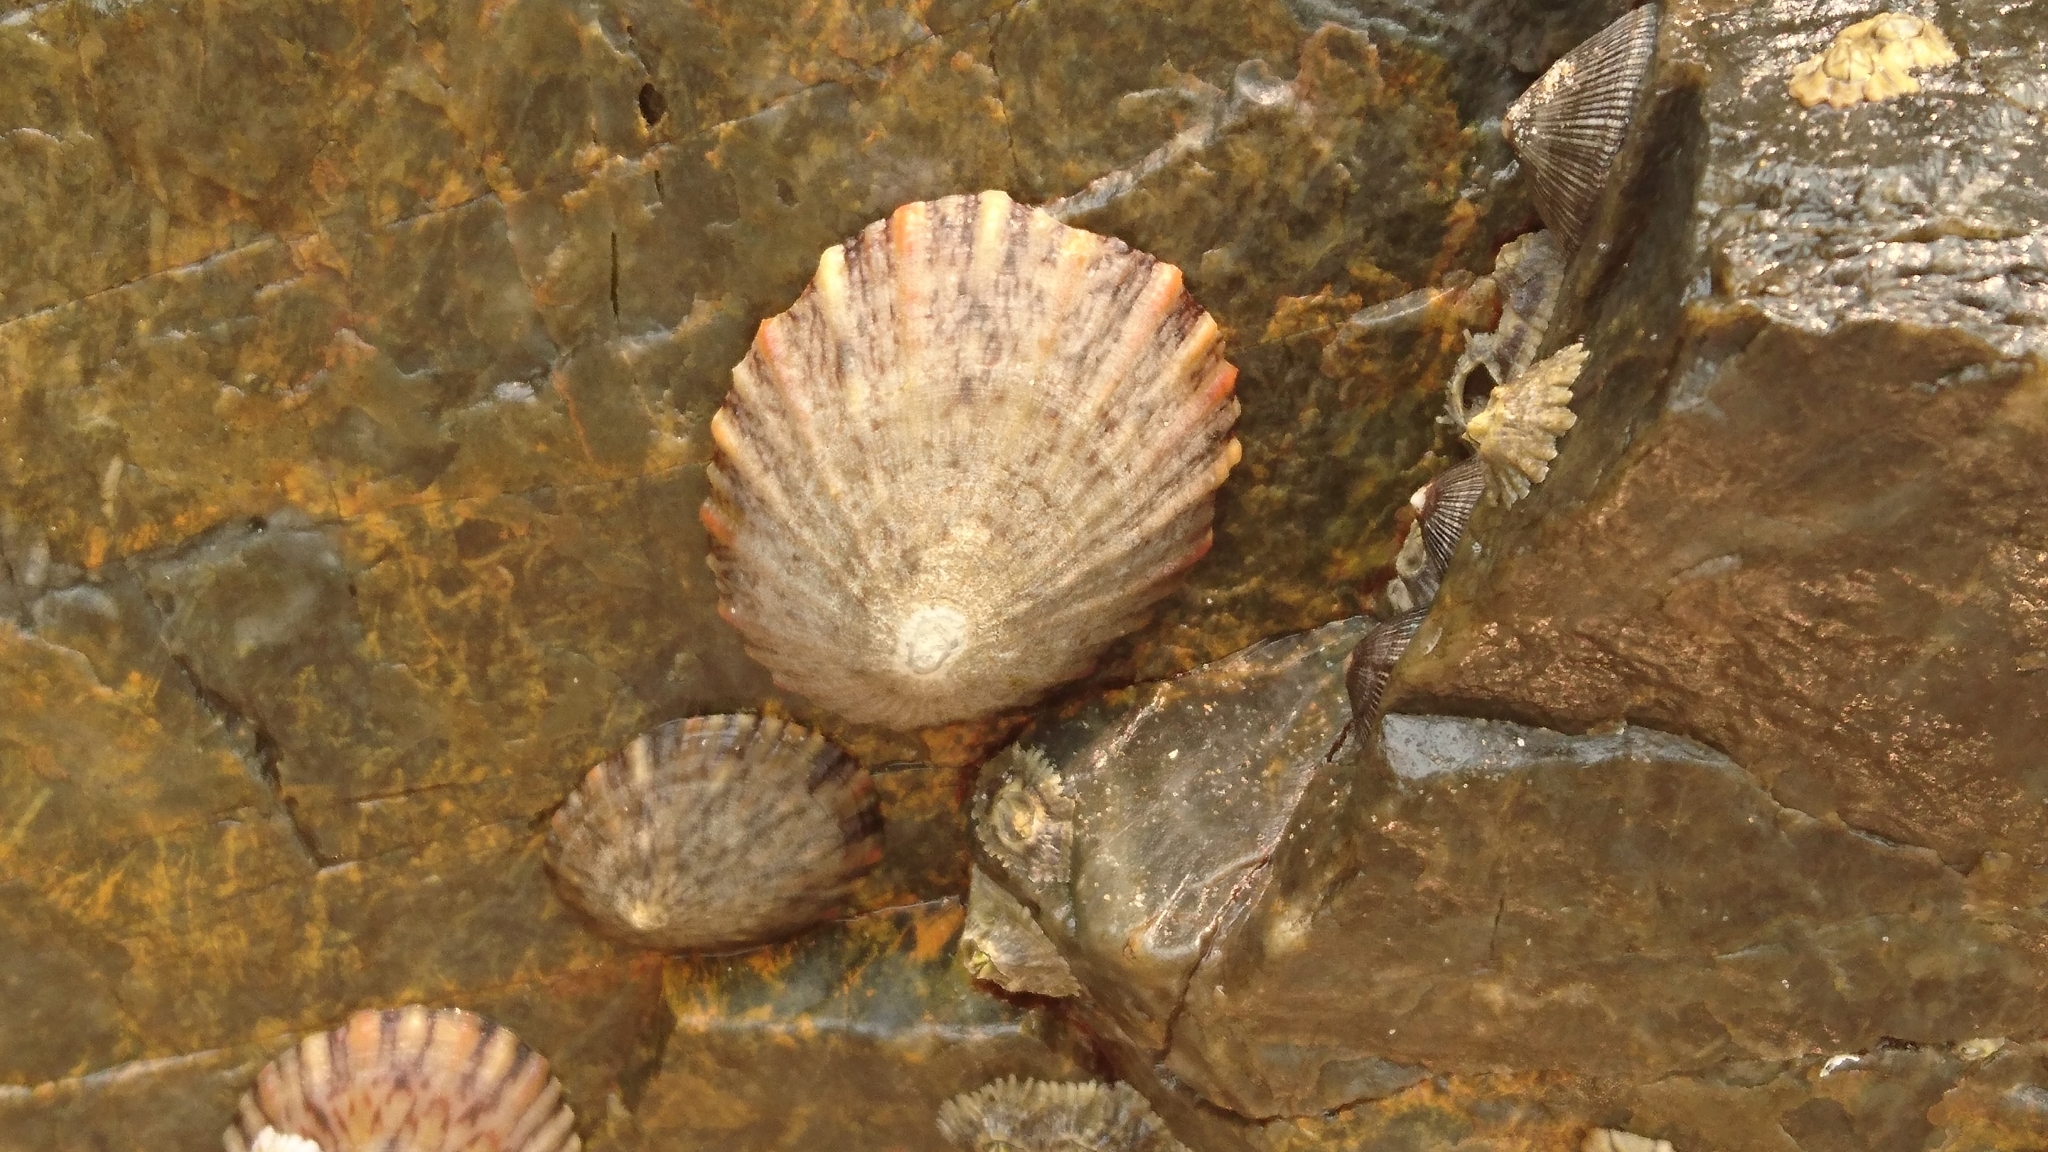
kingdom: Animalia
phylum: Mollusca
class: Gastropoda
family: Nacellidae
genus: Cellana
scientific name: Cellana tramoserica
